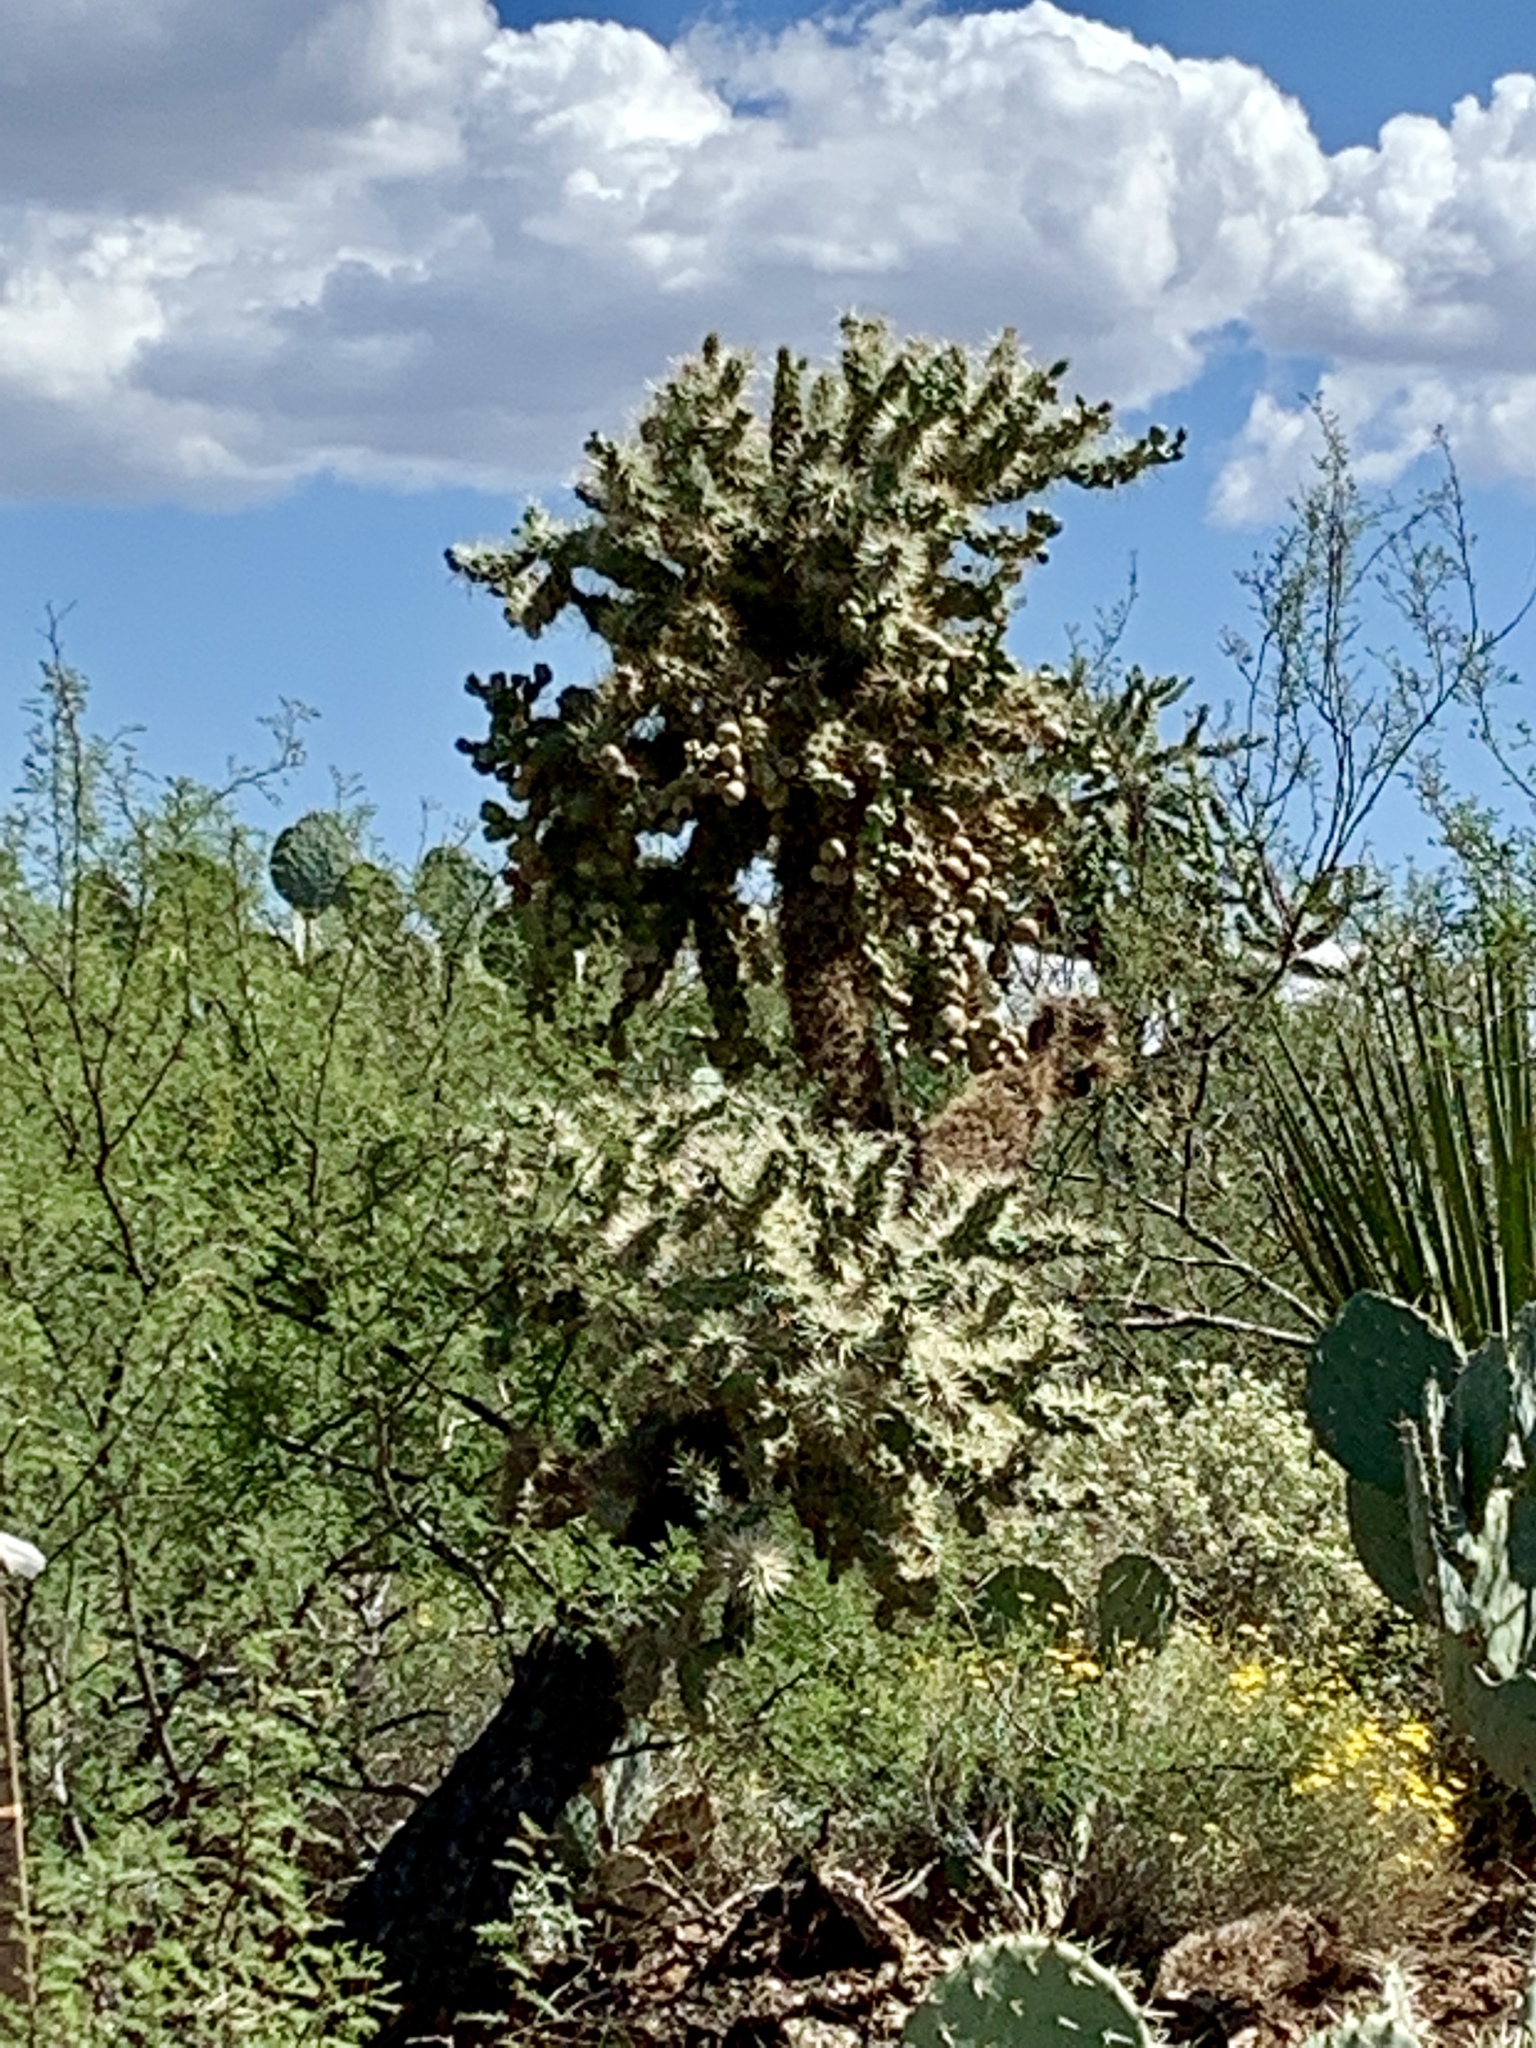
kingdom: Plantae
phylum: Tracheophyta
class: Magnoliopsida
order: Caryophyllales
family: Cactaceae
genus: Cylindropuntia
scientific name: Cylindropuntia fulgida
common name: Jumping cholla
